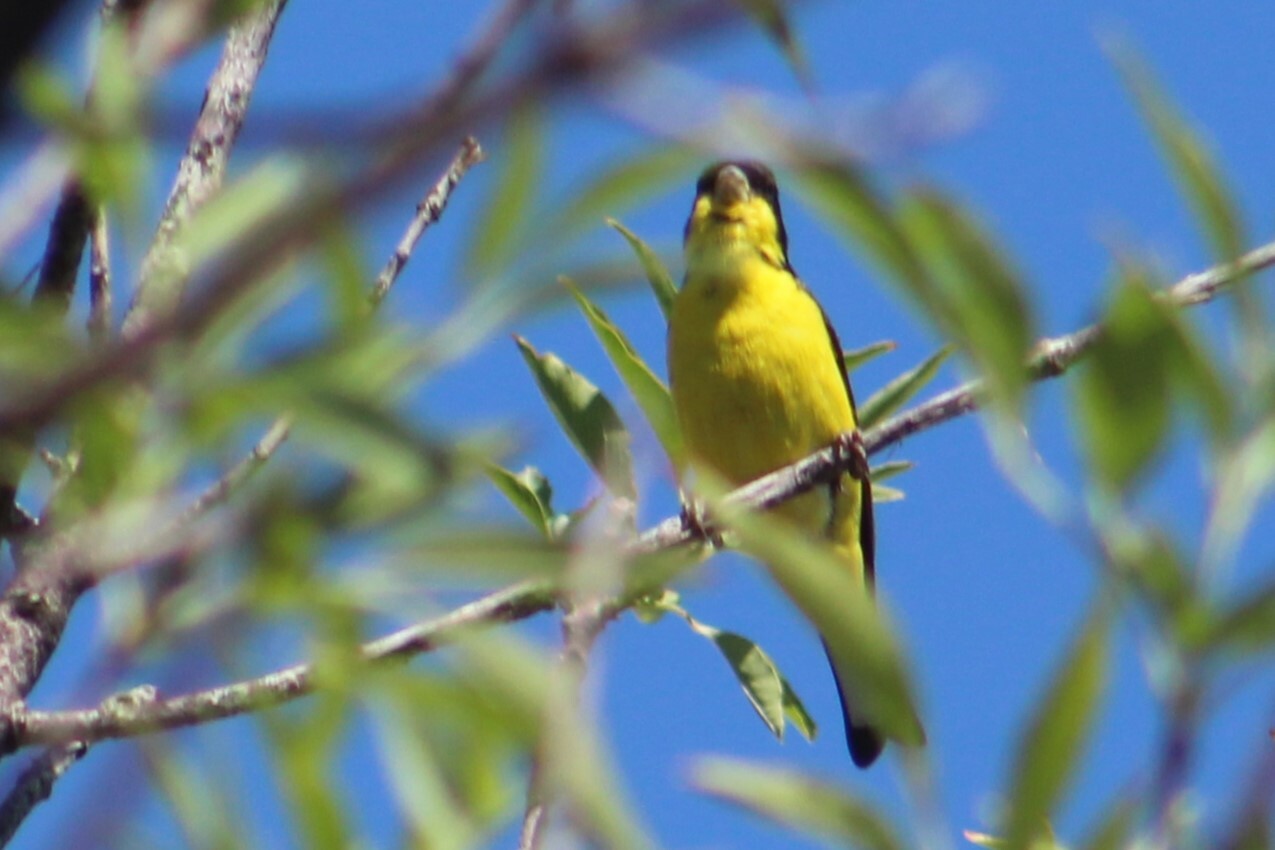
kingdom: Animalia
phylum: Chordata
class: Aves
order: Passeriformes
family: Fringillidae
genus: Spinus
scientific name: Spinus psaltria
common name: Lesser goldfinch
